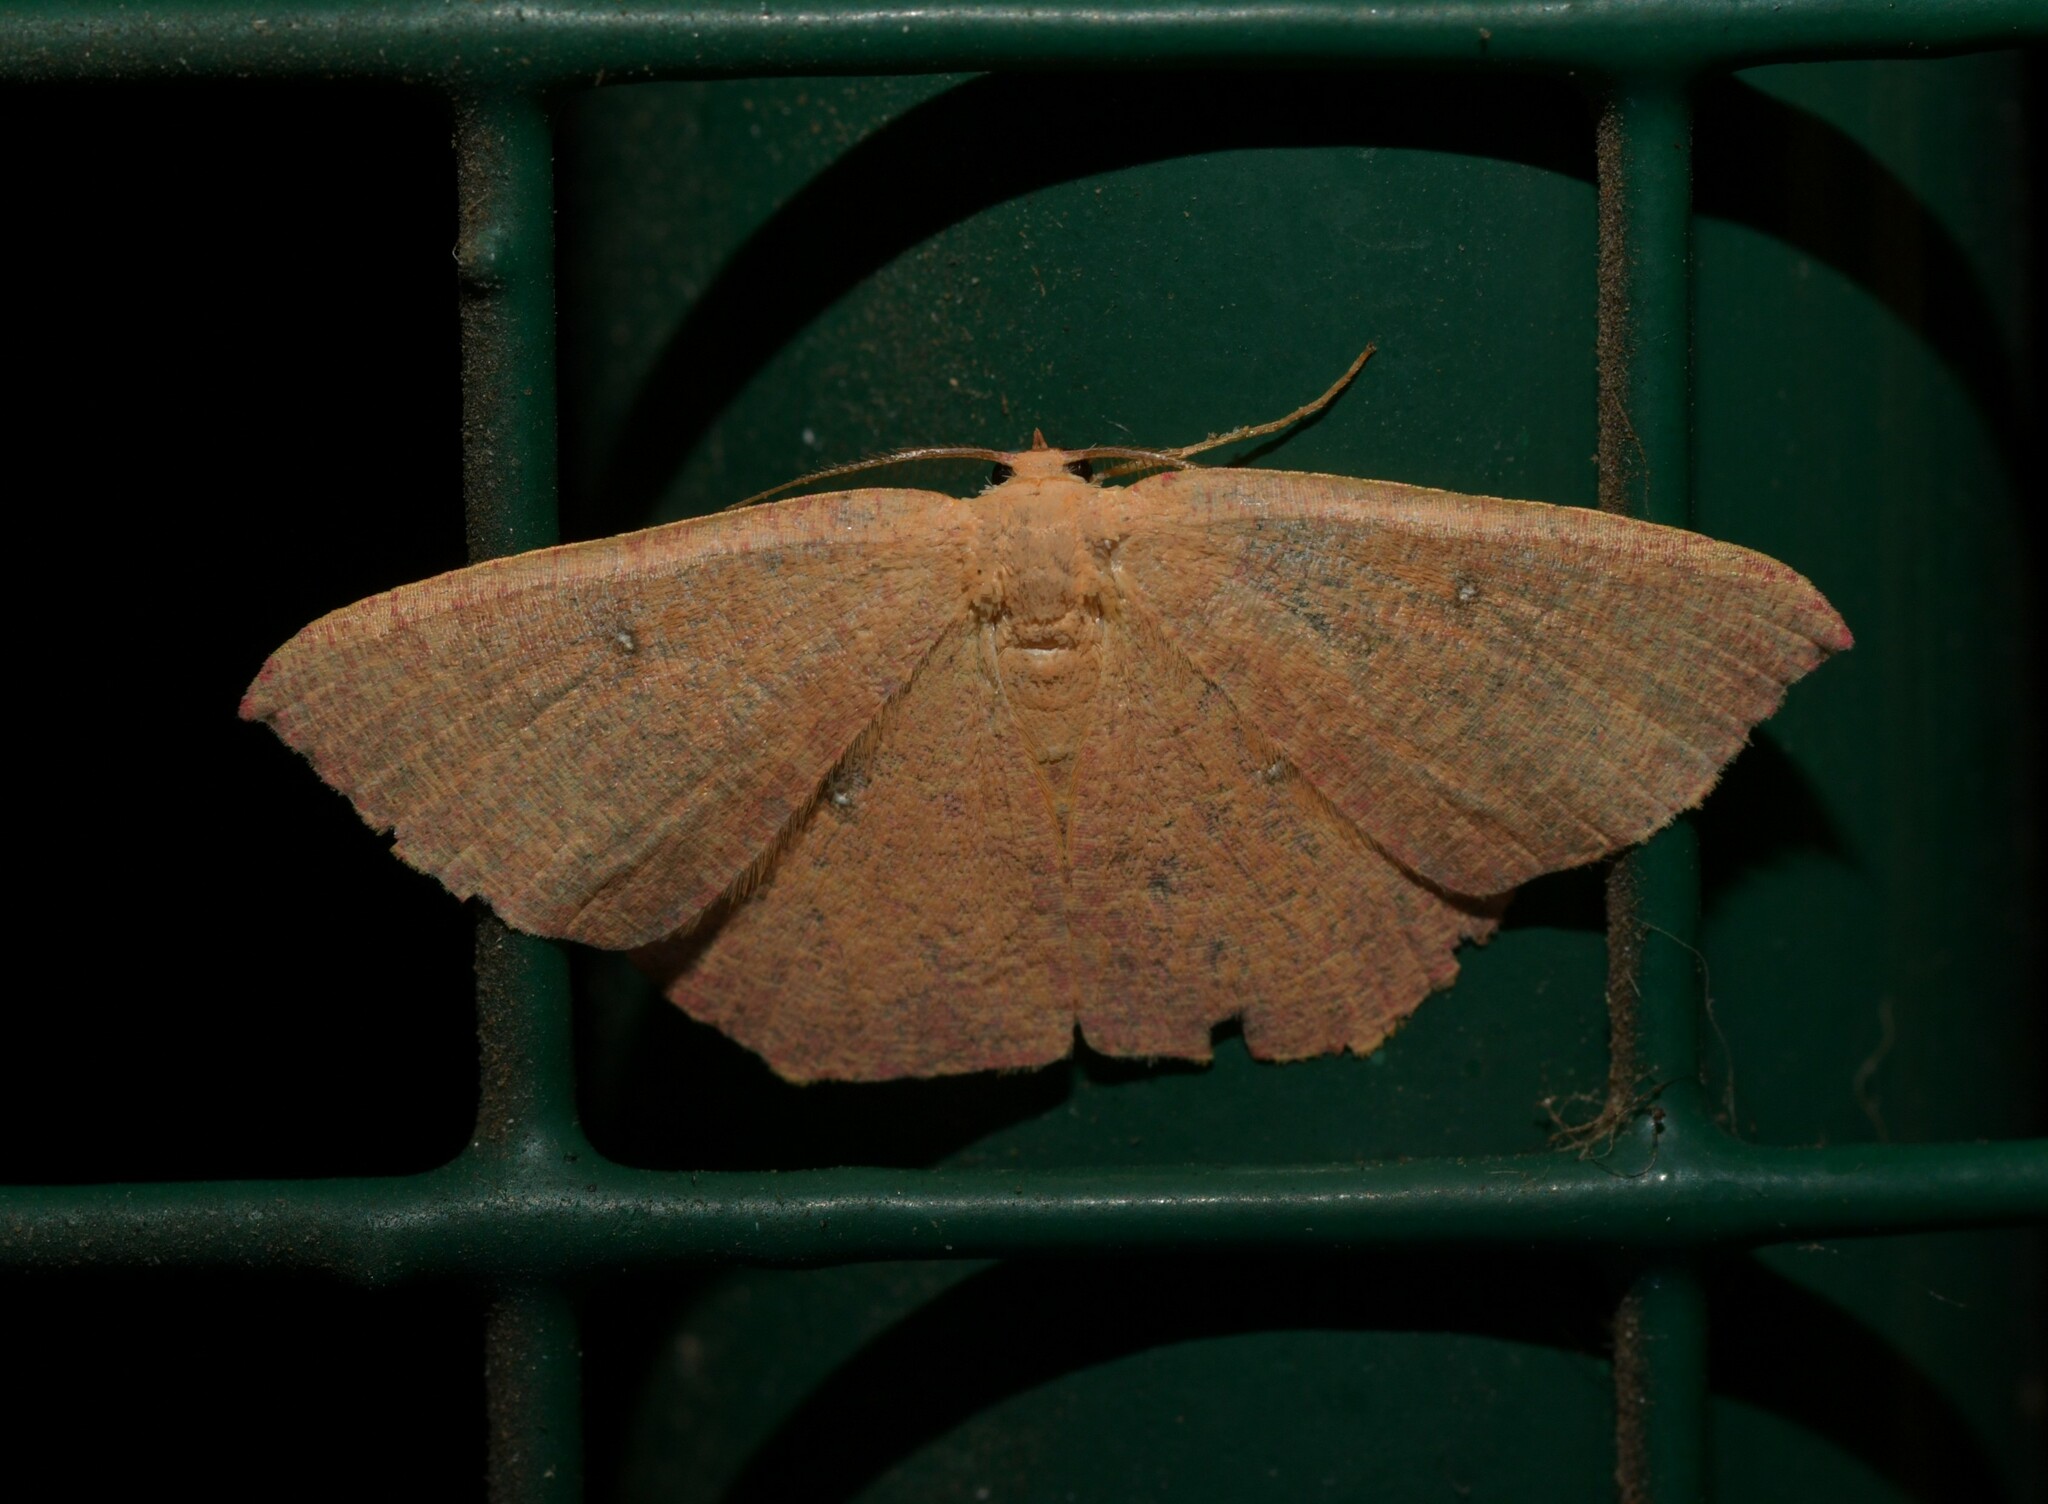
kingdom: Animalia
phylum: Arthropoda
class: Insecta
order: Lepidoptera
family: Geometridae
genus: Cyclophora
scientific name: Cyclophora puppillaria
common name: Blair's mocha
